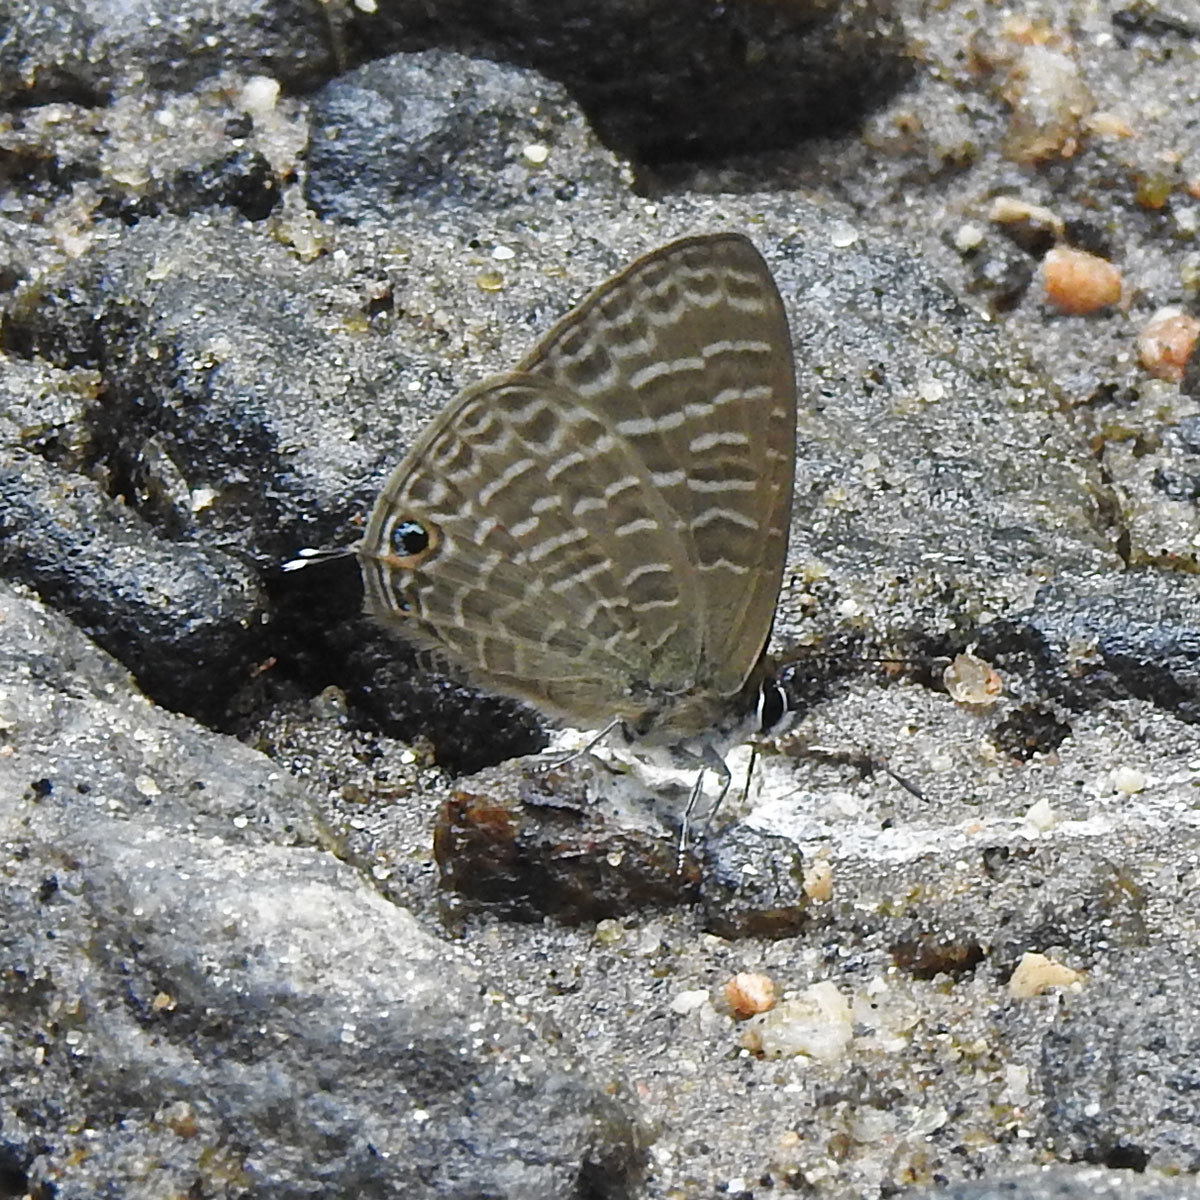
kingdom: Animalia
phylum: Arthropoda
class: Insecta
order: Lepidoptera
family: Lycaenidae
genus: Nacaduba
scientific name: Nacaduba kurava
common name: Transparent 6-line blue
